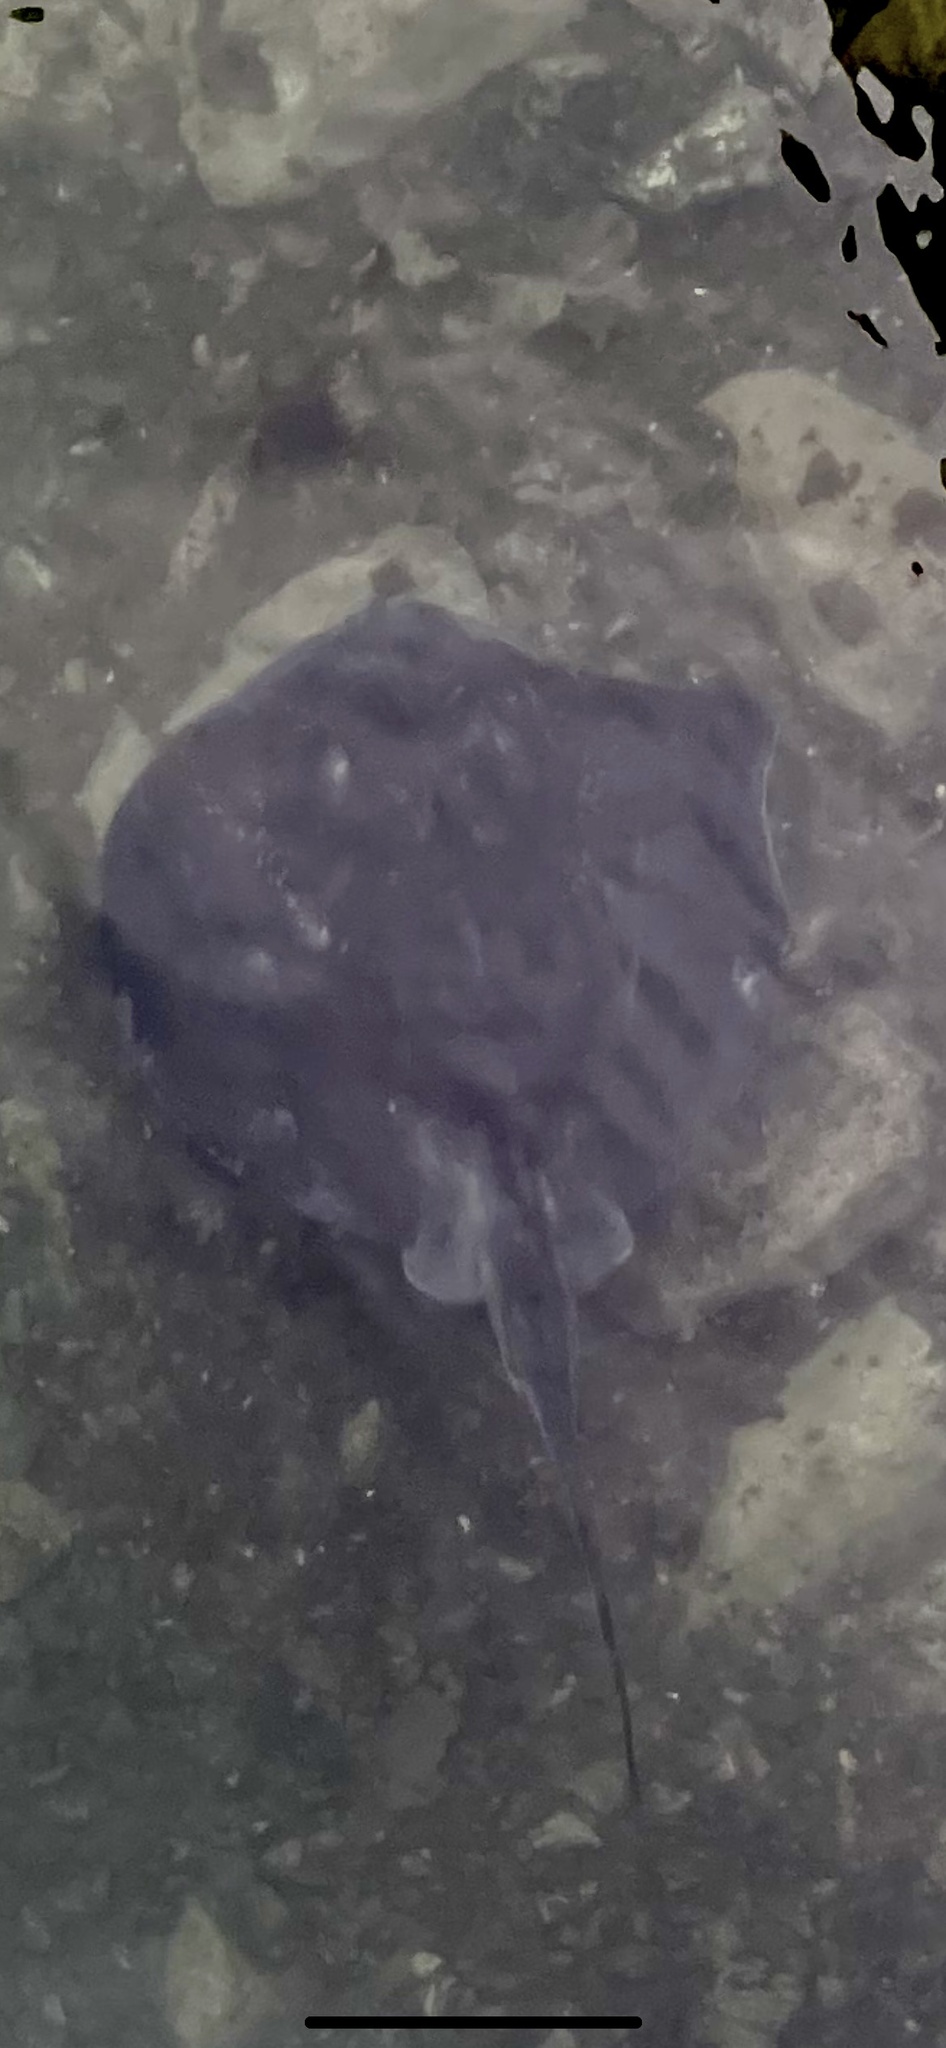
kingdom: Animalia
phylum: Chordata
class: Elasmobranchii
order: Myliobatiformes
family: Dasyatidae
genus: Bathytoshia
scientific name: Bathytoshia brevicaudata
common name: Short-tail stingray
